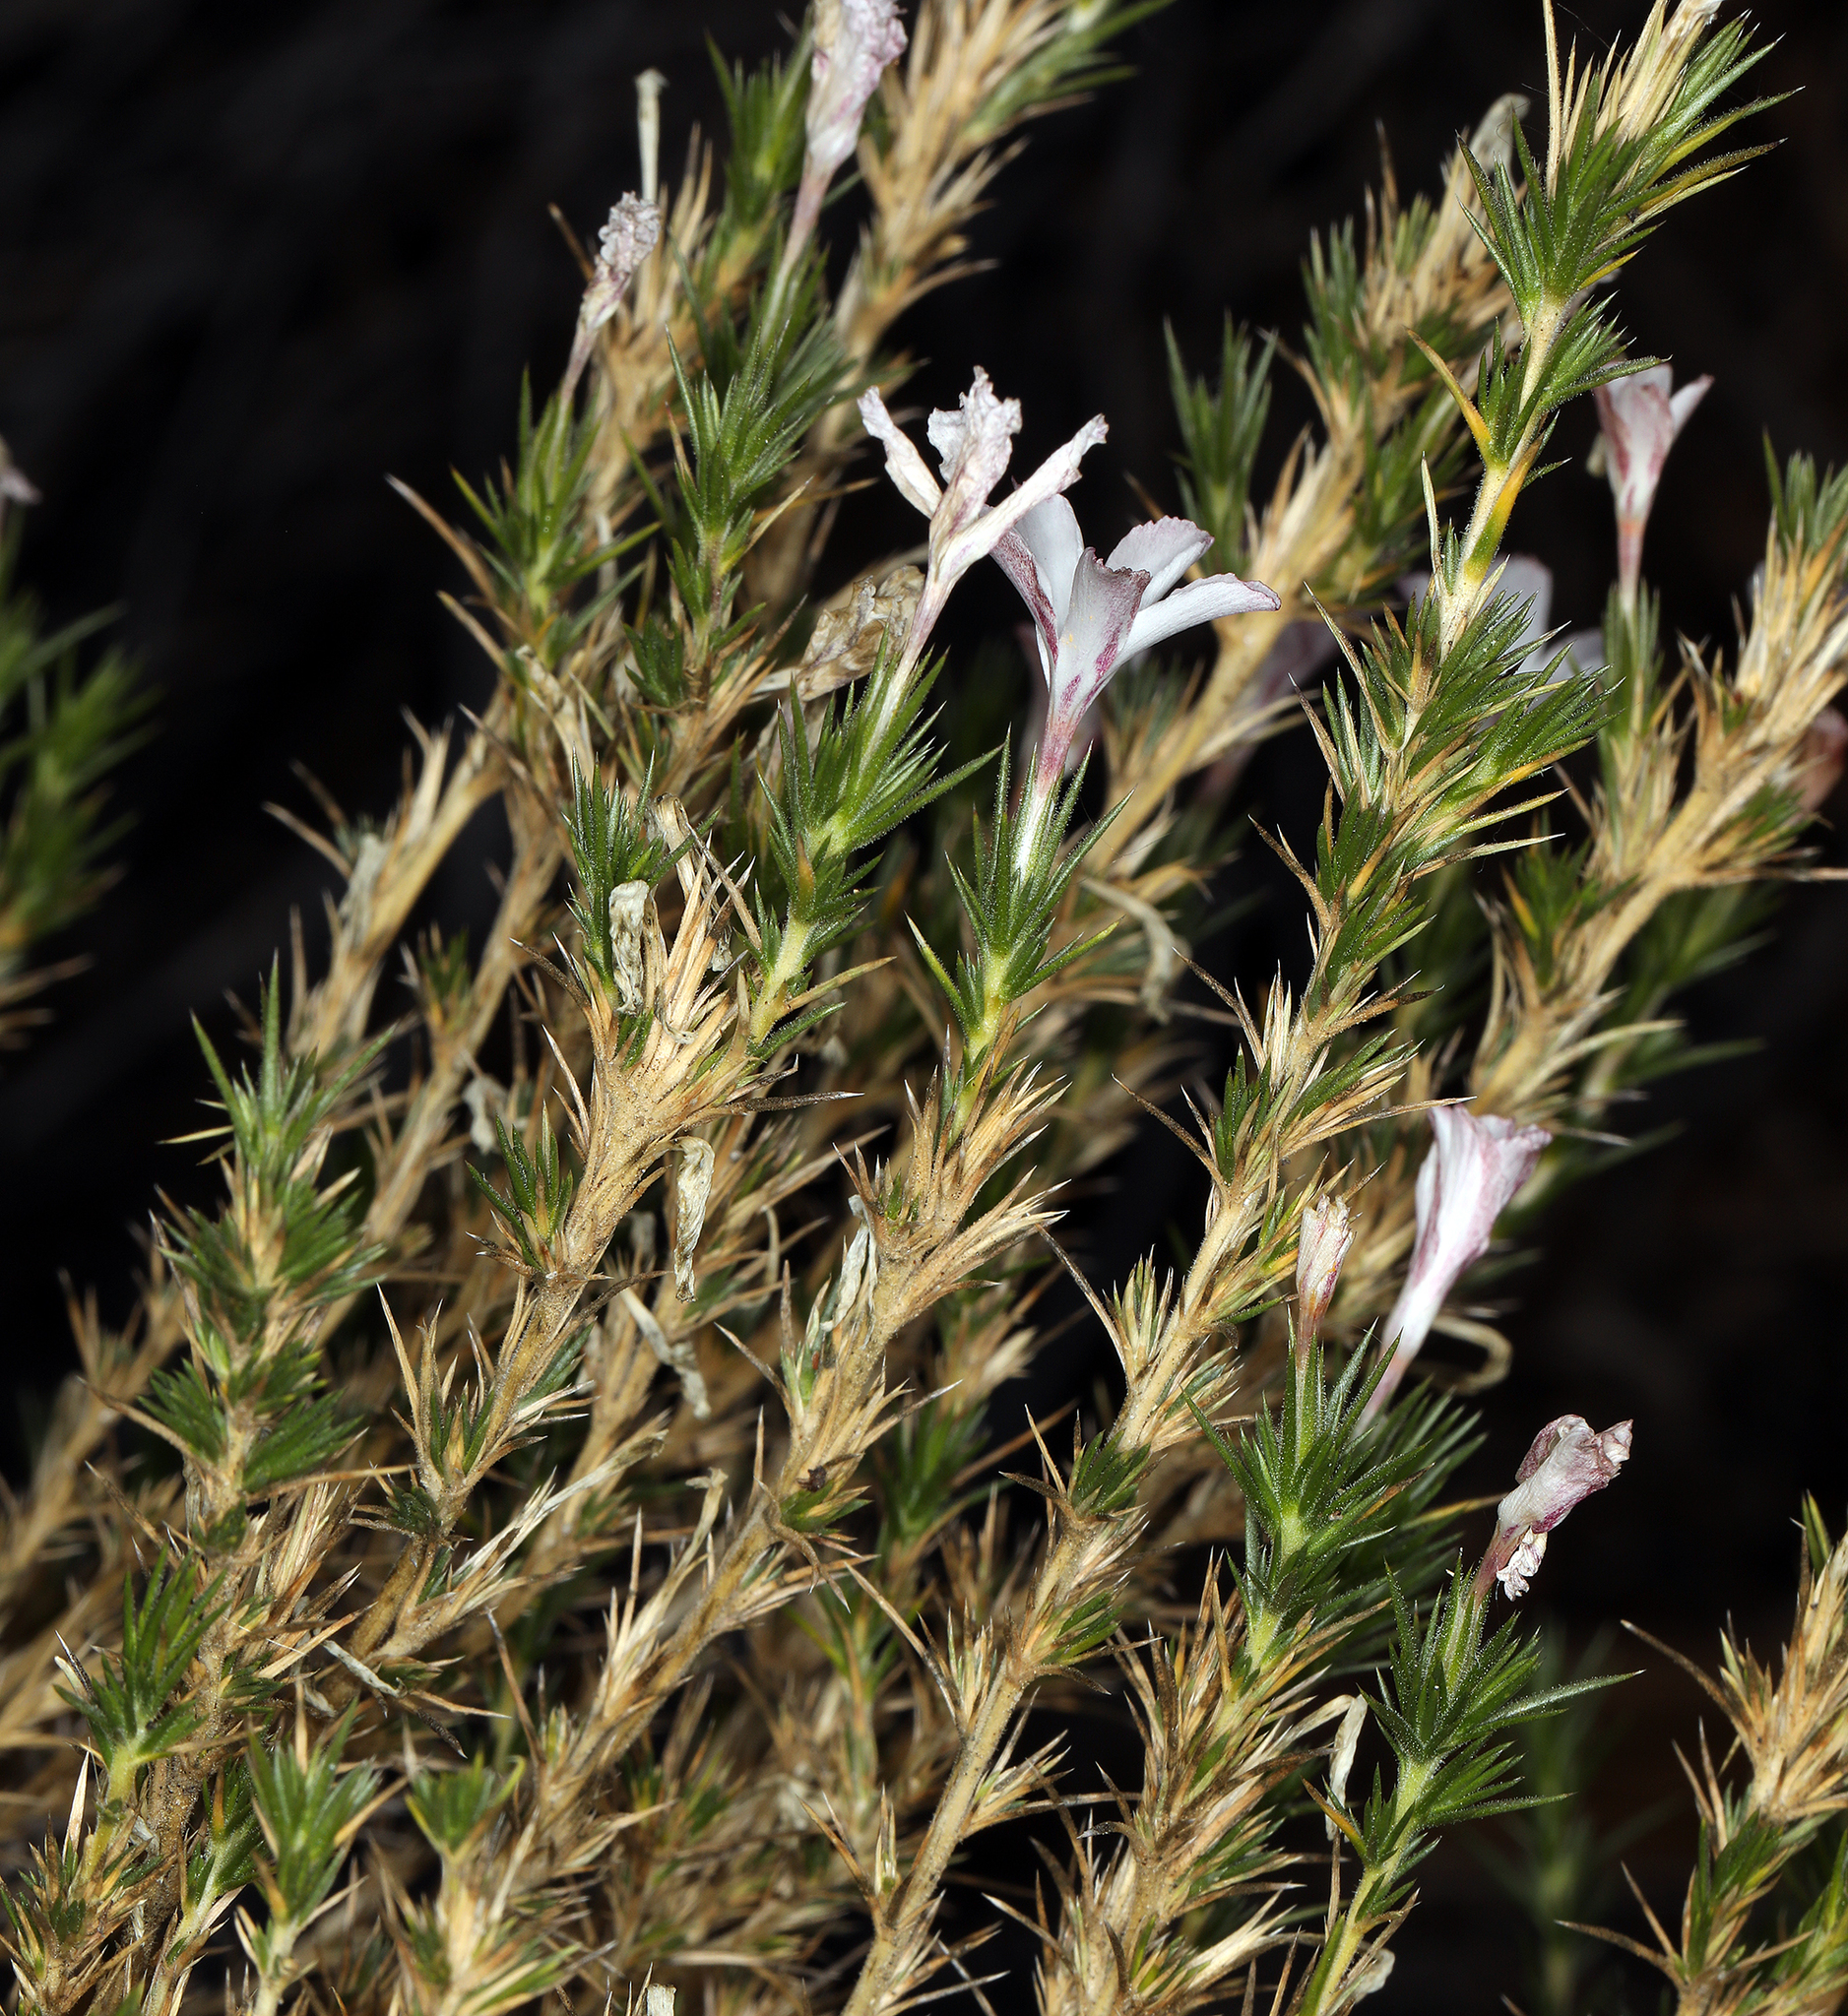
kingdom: Plantae
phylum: Tracheophyta
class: Magnoliopsida
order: Ericales
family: Polemoniaceae
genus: Linanthus
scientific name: Linanthus pungens
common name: Granite prickly phlox
